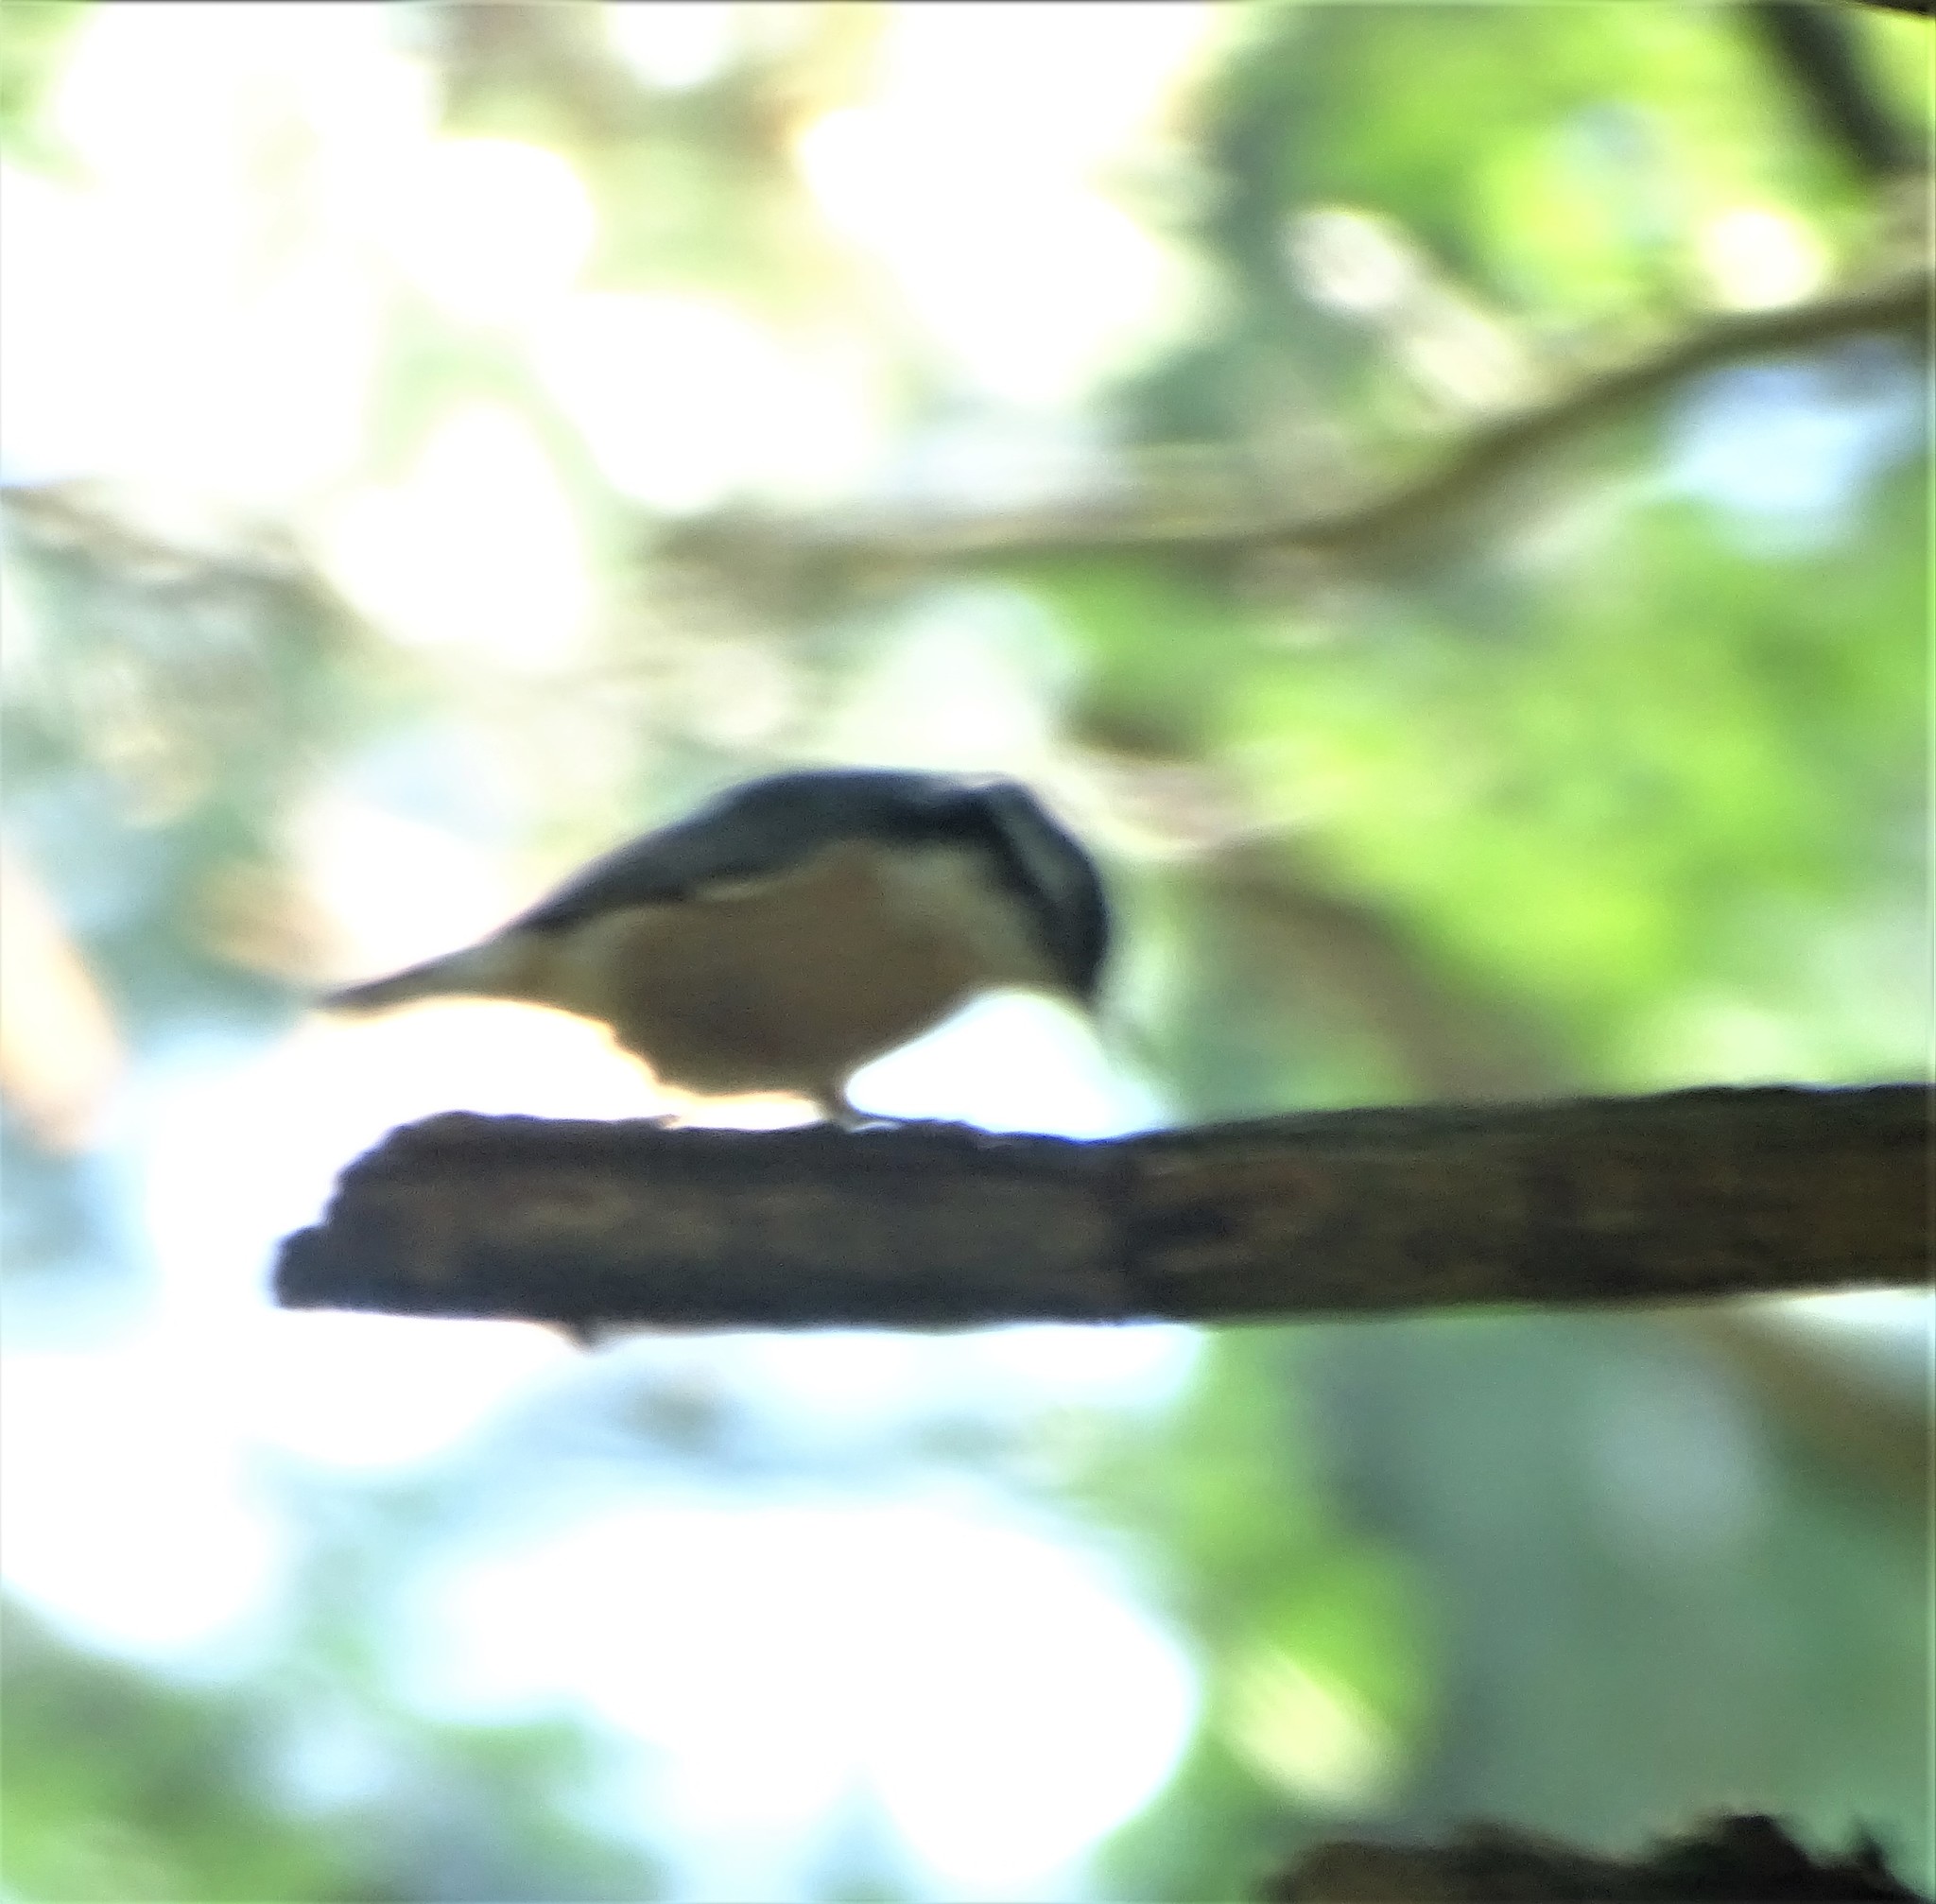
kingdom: Animalia
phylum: Chordata
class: Aves
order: Passeriformes
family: Sittidae
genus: Sitta
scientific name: Sitta canadensis
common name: Red-breasted nuthatch
